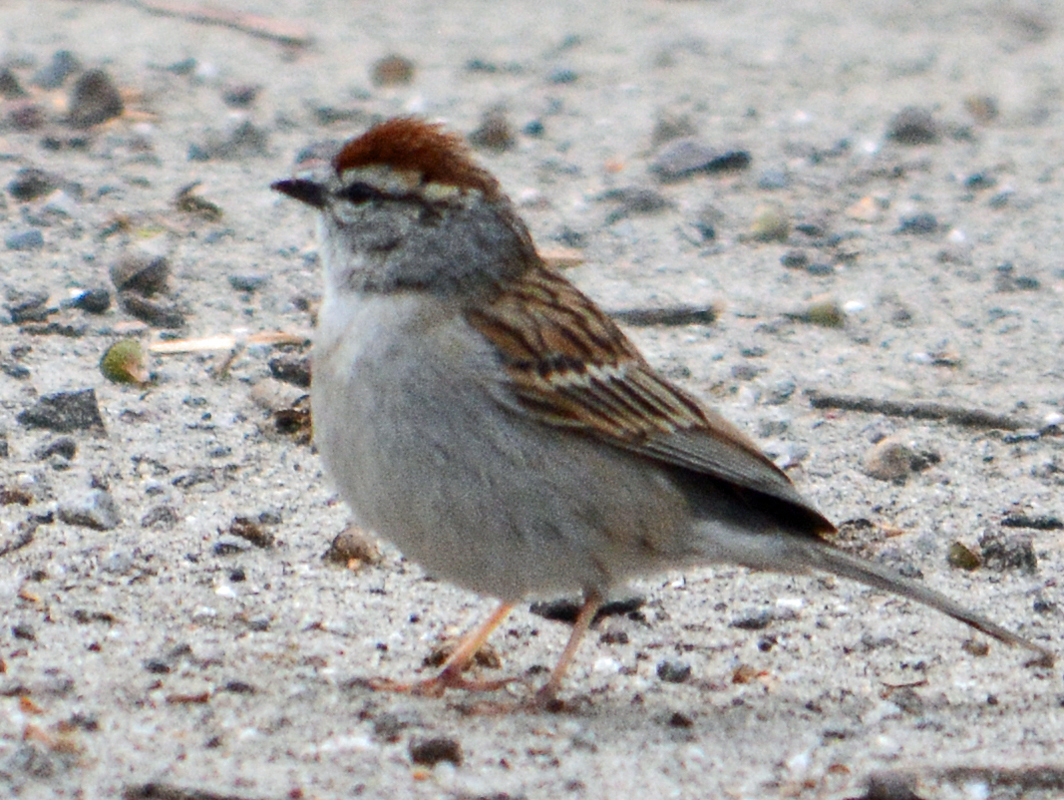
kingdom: Animalia
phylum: Chordata
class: Aves
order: Passeriformes
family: Passerellidae
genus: Spizella
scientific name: Spizella passerina
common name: Chipping sparrow
